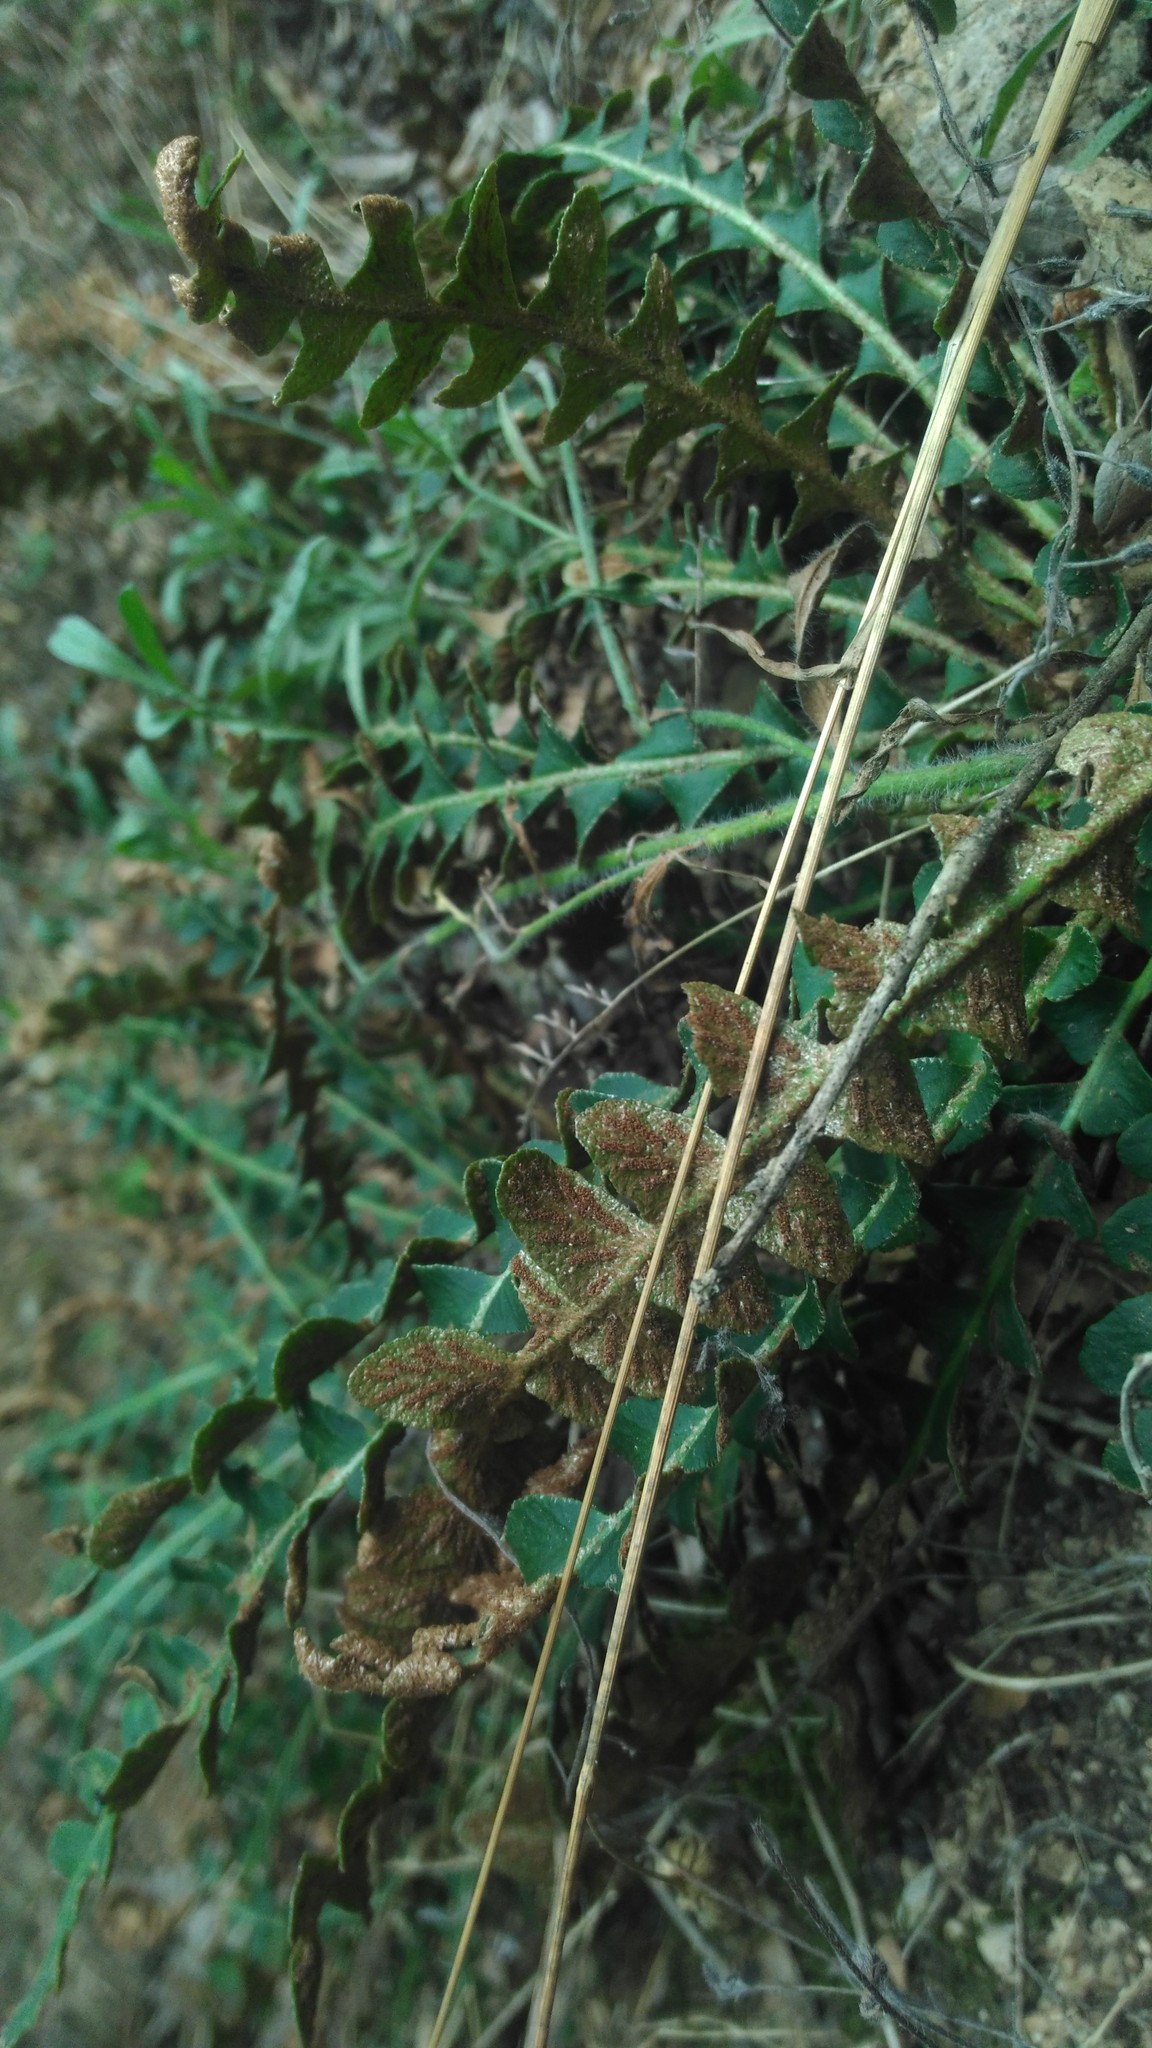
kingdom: Plantae
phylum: Tracheophyta
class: Polypodiopsida
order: Polypodiales
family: Aspleniaceae
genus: Asplenium
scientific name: Asplenium ceterach
